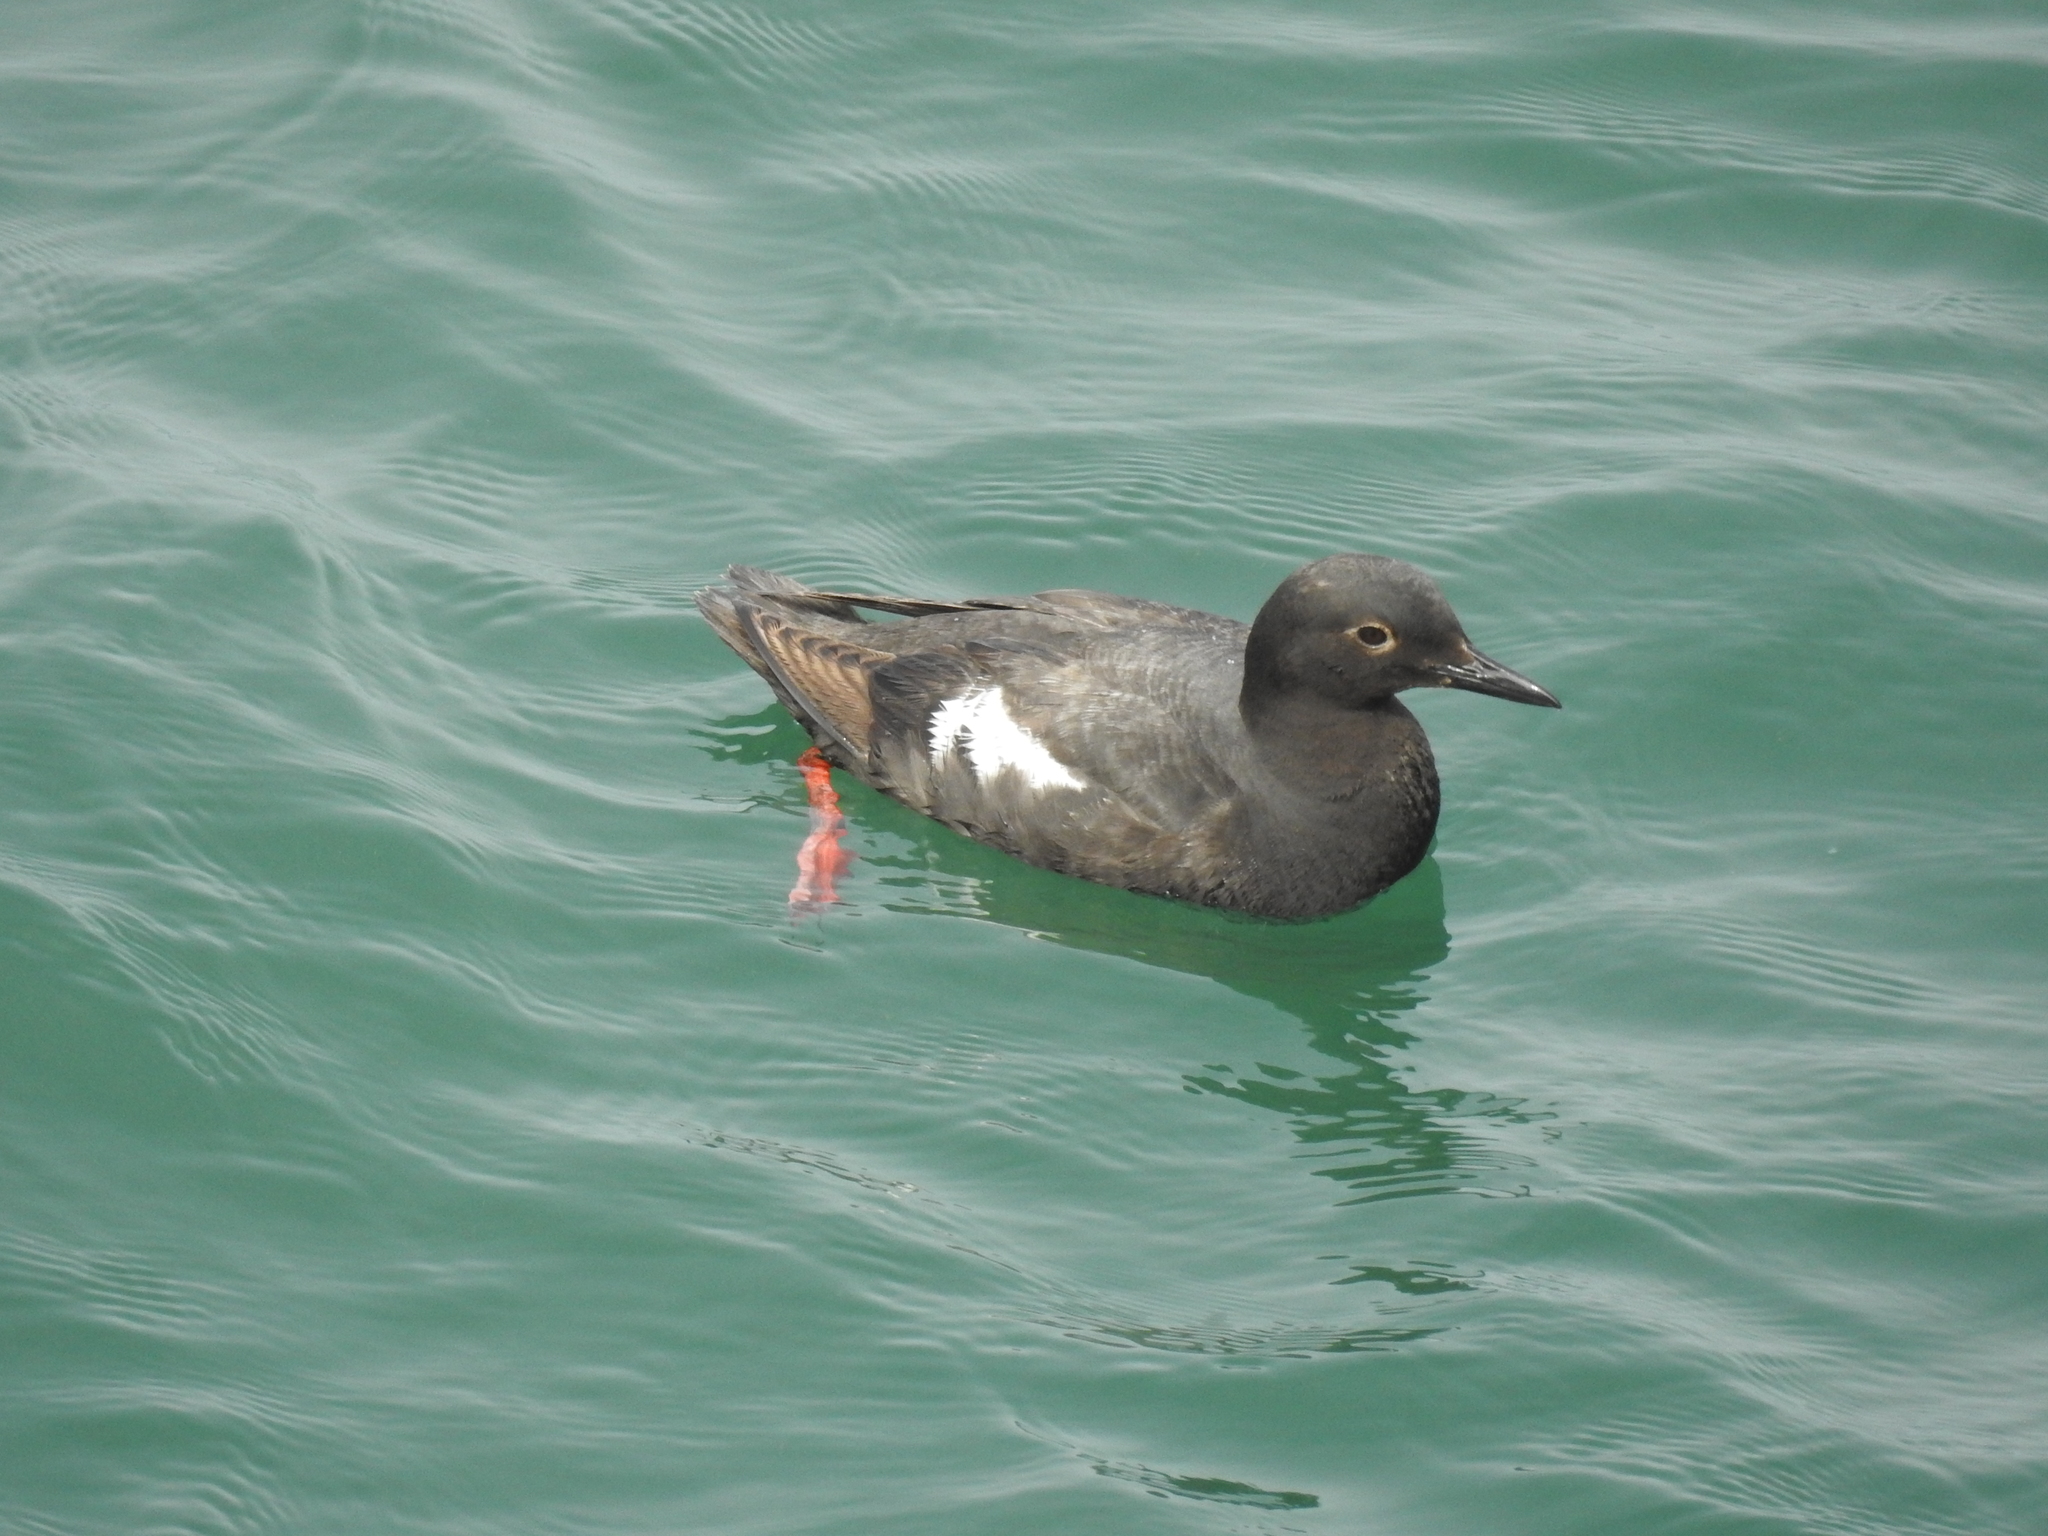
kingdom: Animalia
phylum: Chordata
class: Aves
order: Charadriiformes
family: Alcidae
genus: Cepphus
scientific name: Cepphus columba
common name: Pigeon guillemot
